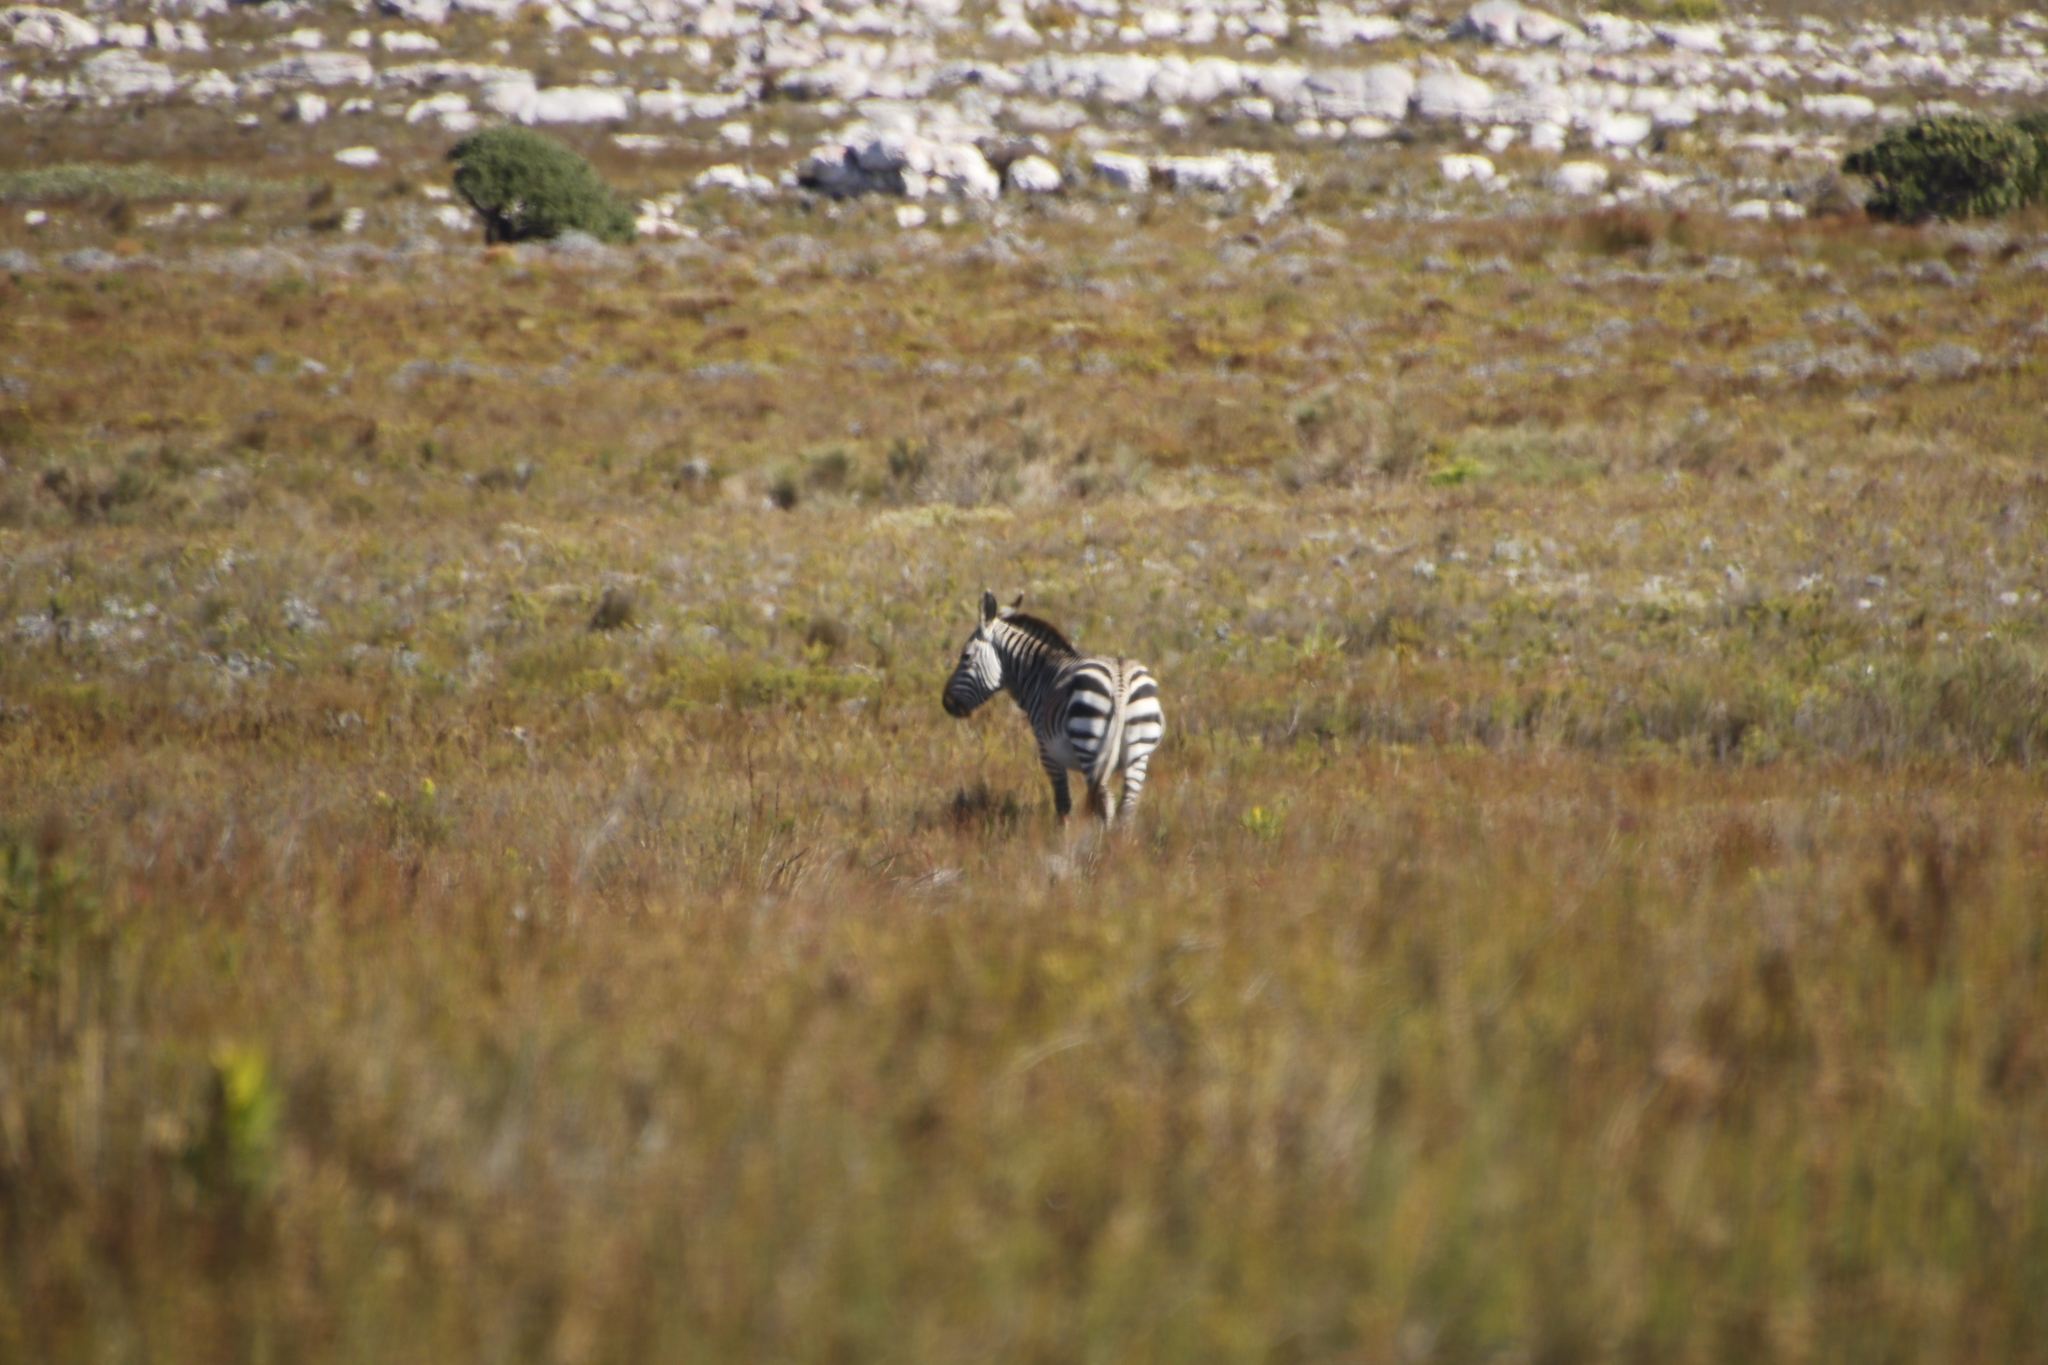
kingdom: Animalia
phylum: Chordata
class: Mammalia
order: Perissodactyla
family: Equidae
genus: Equus
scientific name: Equus zebra
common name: Mountain zebra
